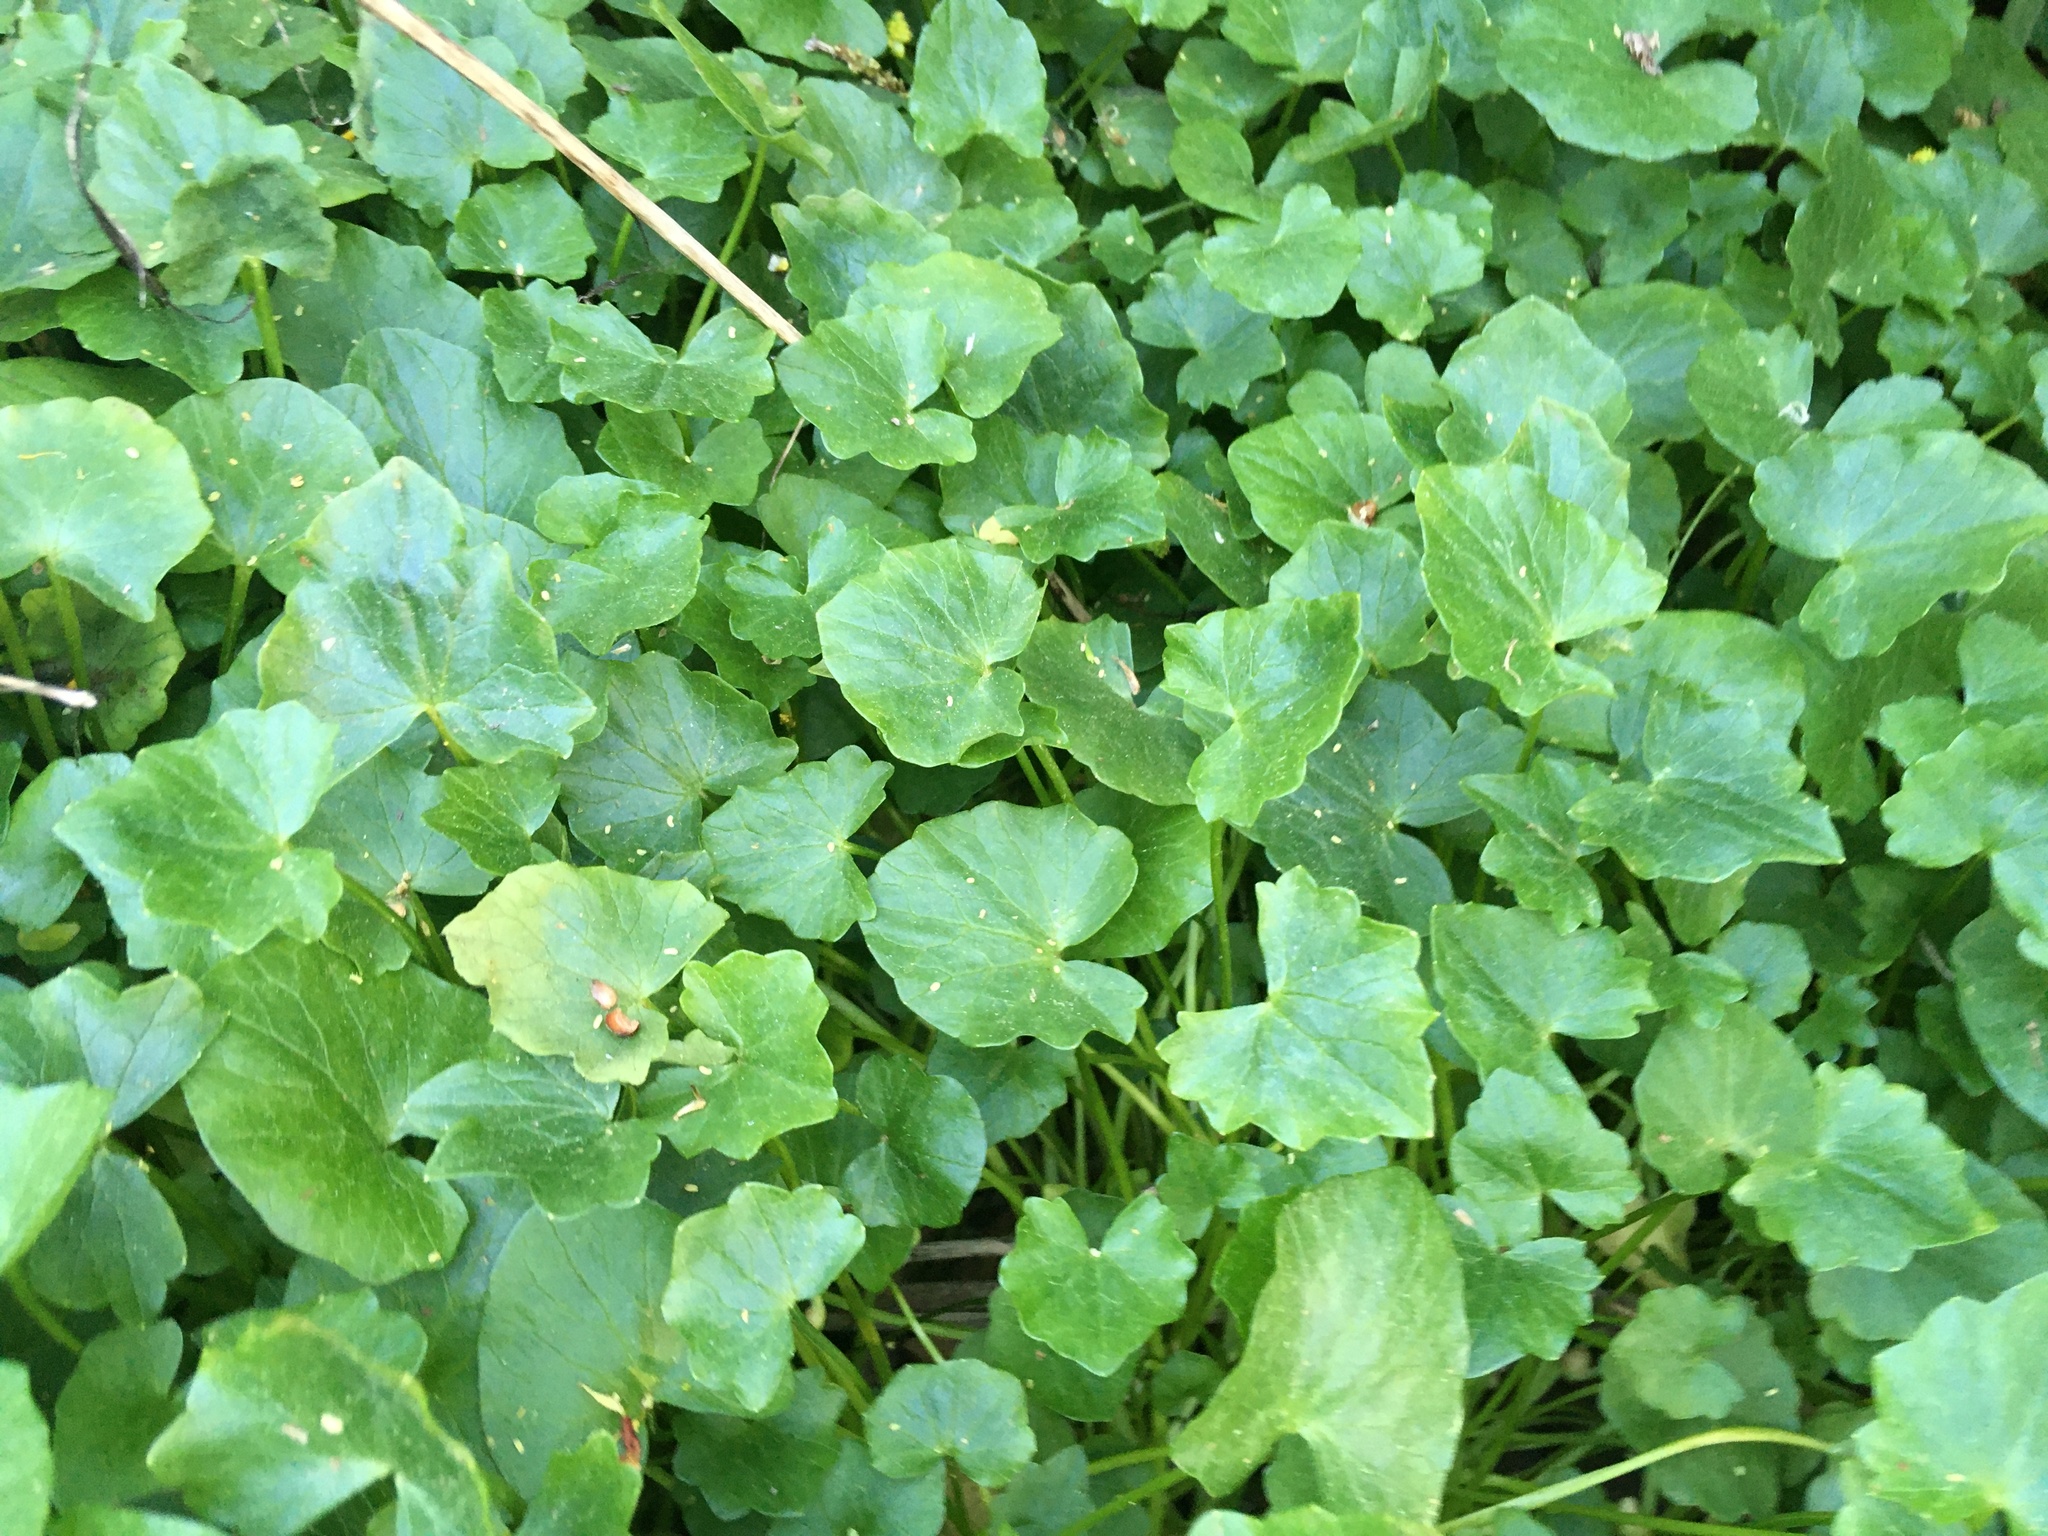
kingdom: Plantae
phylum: Tracheophyta
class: Magnoliopsida
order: Ranunculales
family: Ranunculaceae
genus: Ficaria
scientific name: Ficaria verna
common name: Lesser celandine
